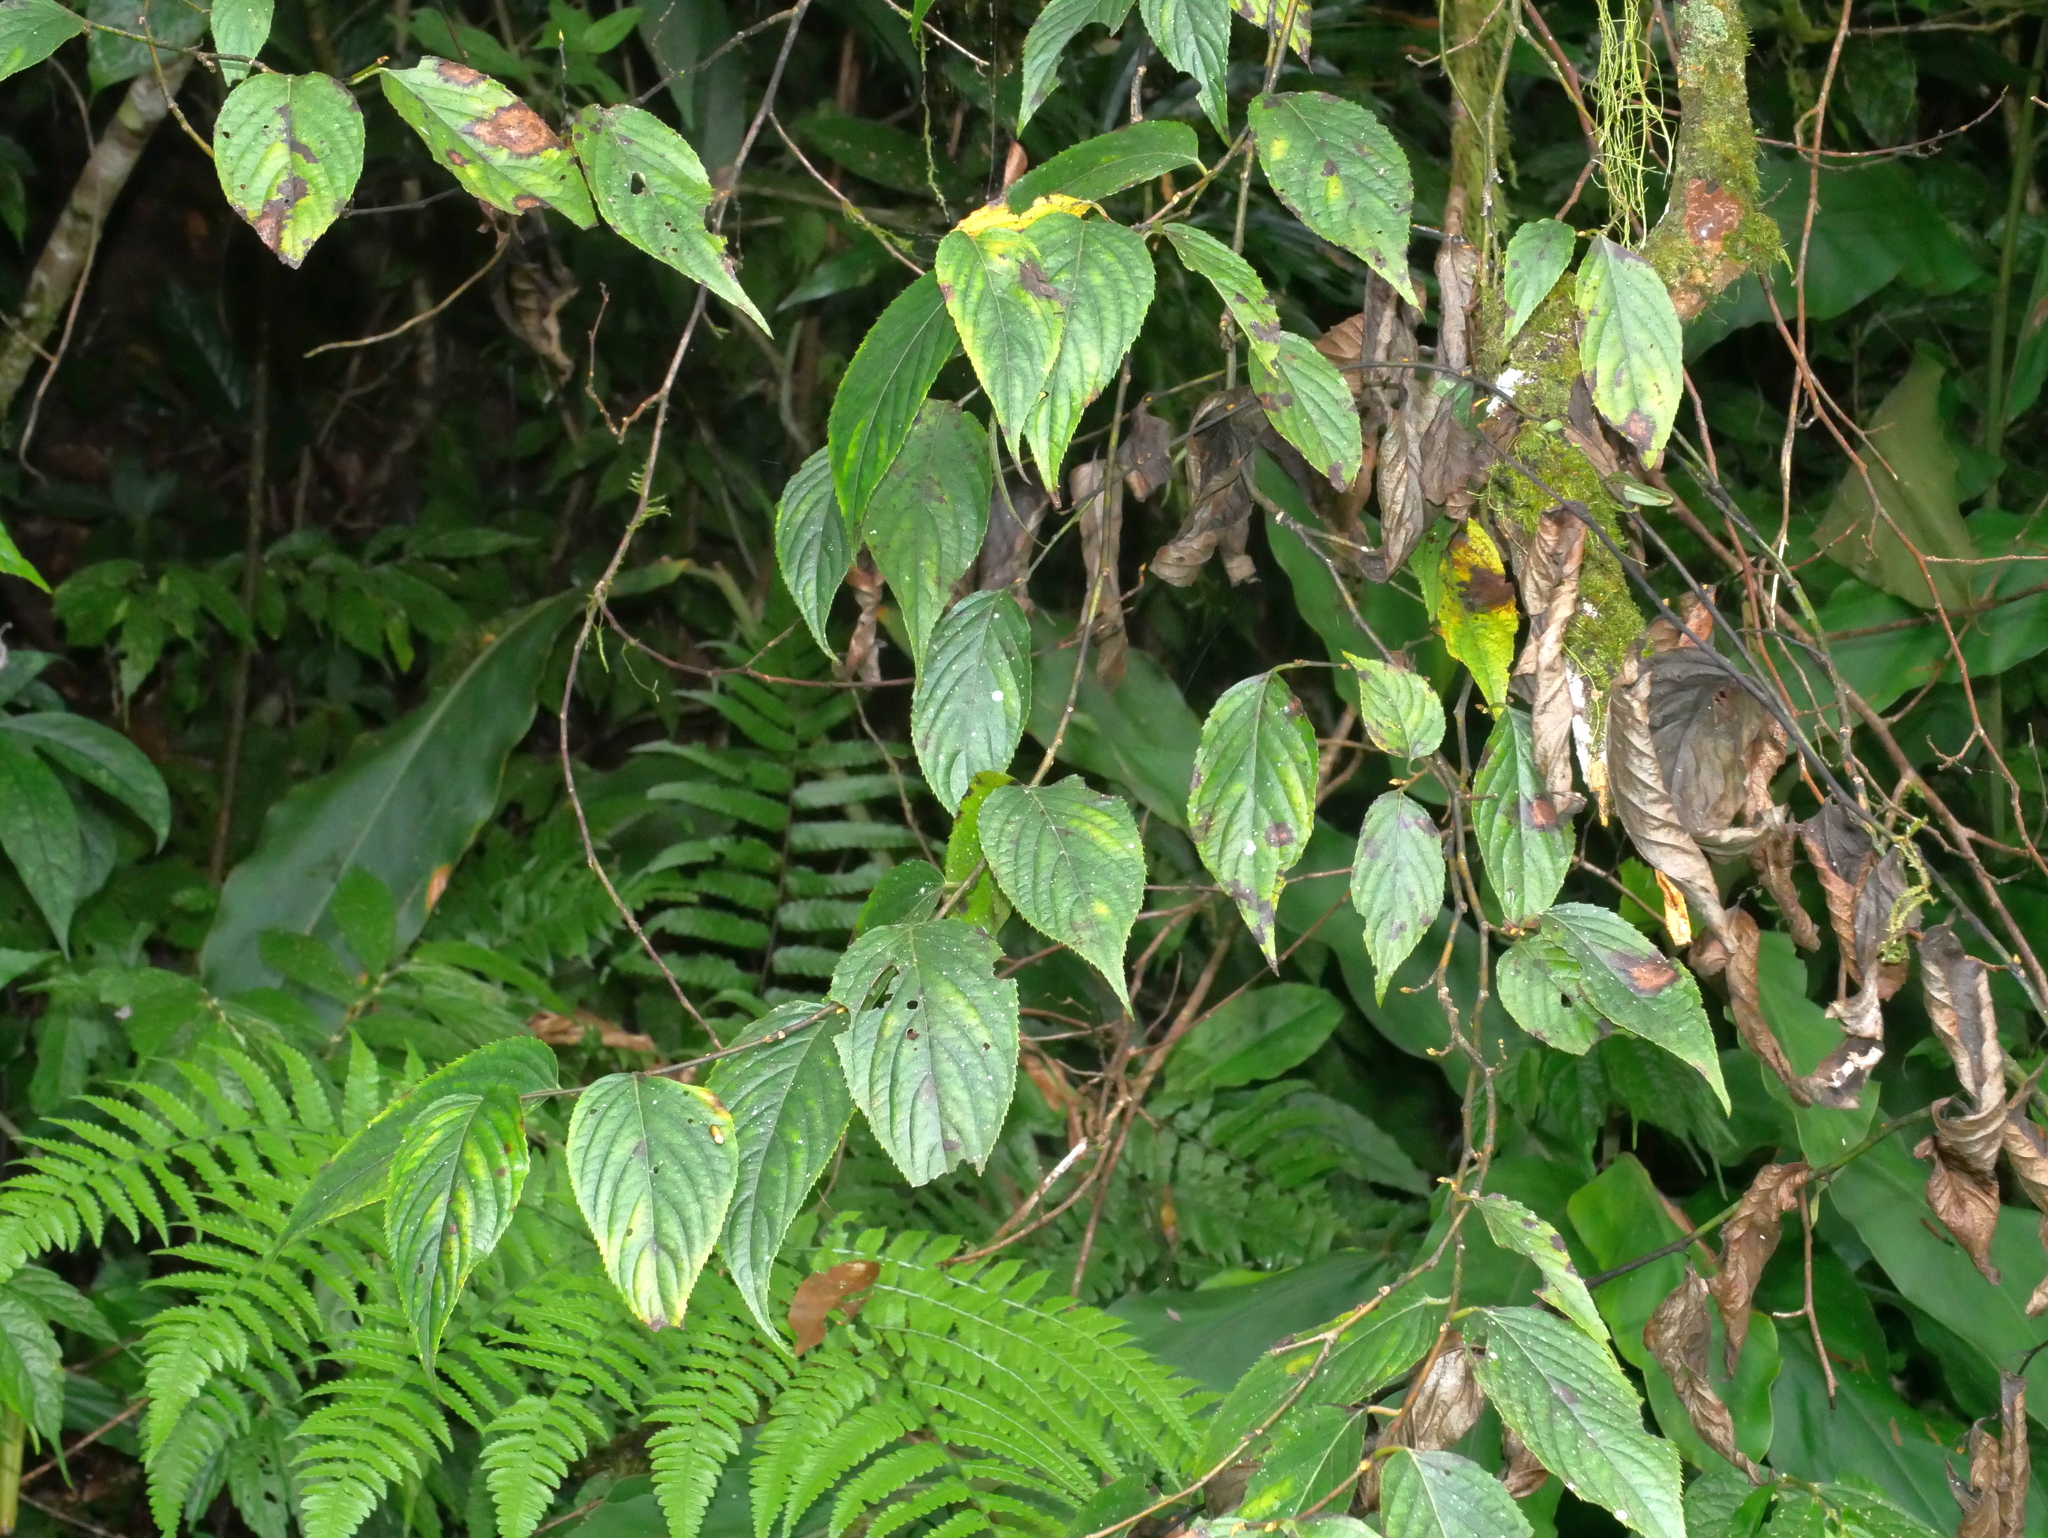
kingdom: Plantae
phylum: Tracheophyta
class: Magnoliopsida
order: Huerteales
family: Dipentodontaceae
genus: Perrottetia
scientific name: Perrottetia arisanensis
